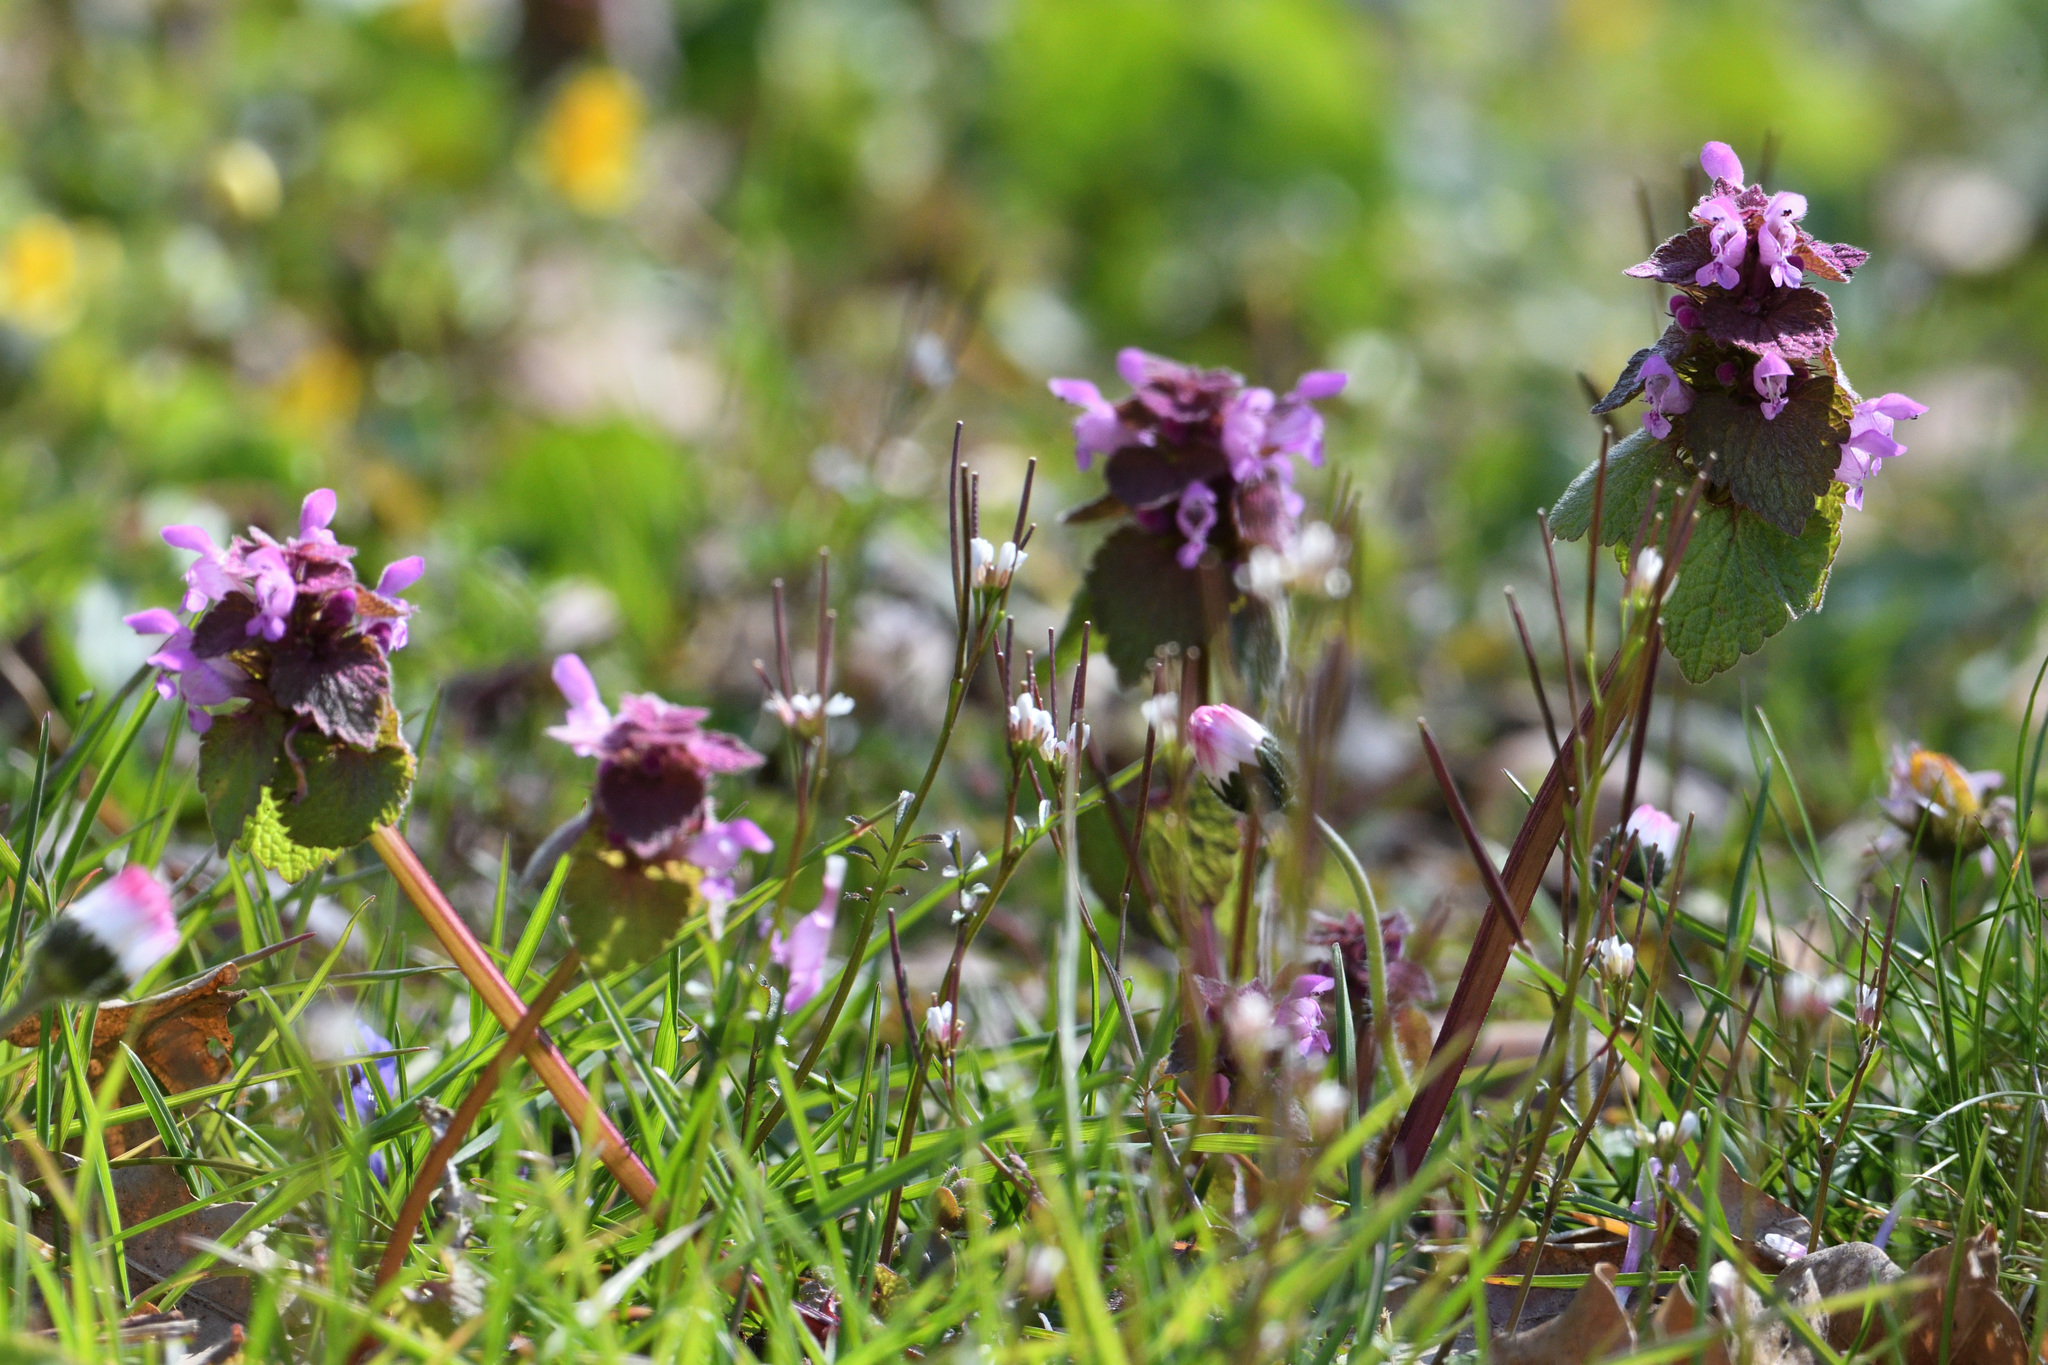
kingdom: Plantae
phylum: Tracheophyta
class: Magnoliopsida
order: Lamiales
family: Lamiaceae
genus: Lamium
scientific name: Lamium purpureum
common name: Red dead-nettle
